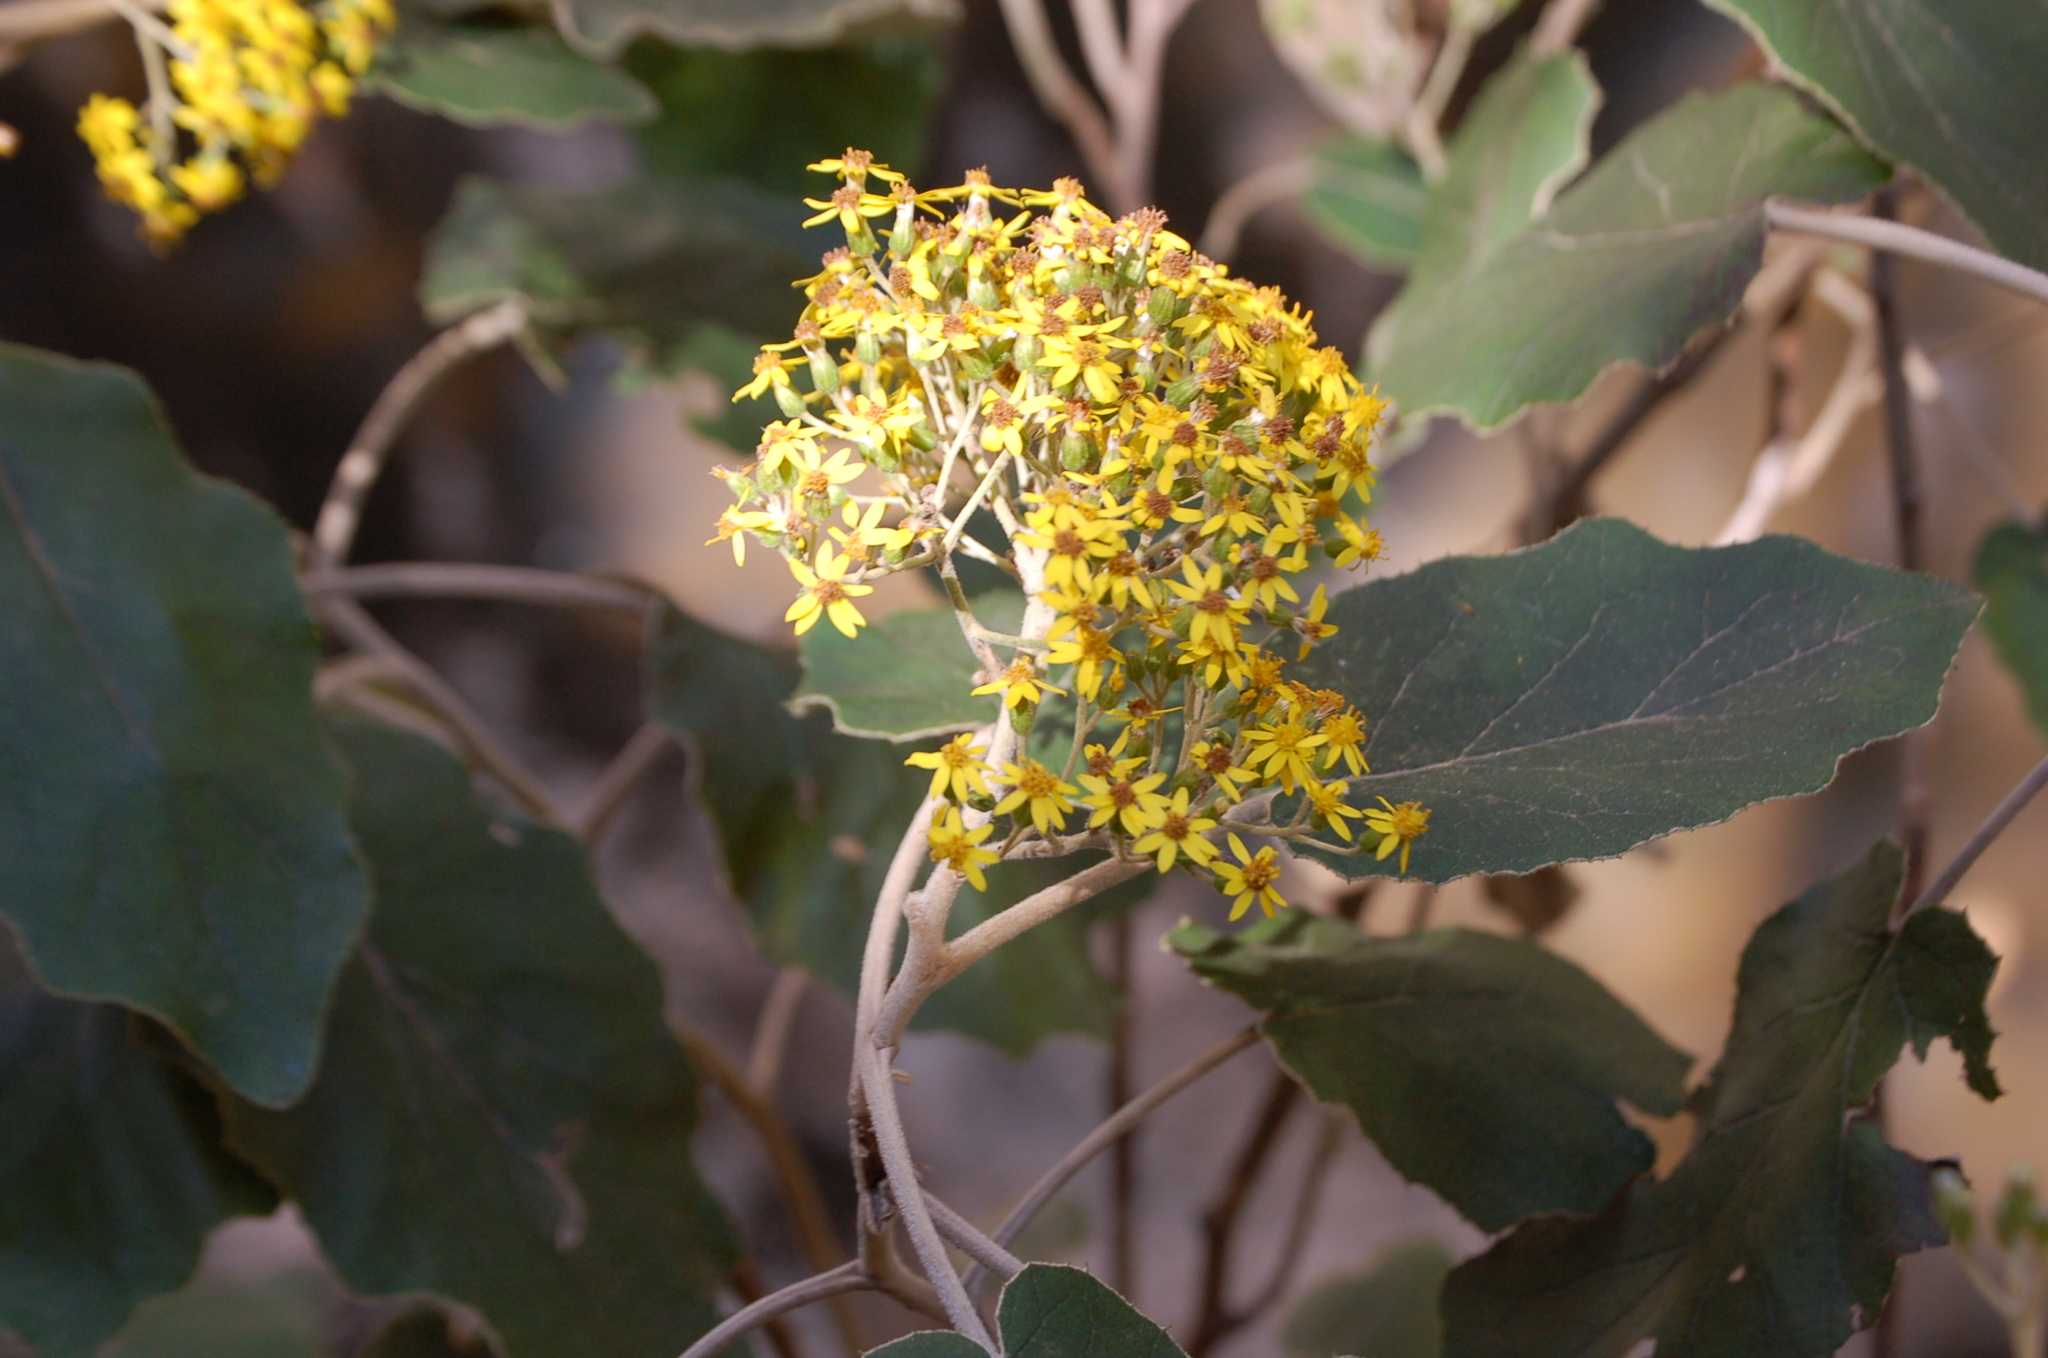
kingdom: Plantae
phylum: Tracheophyta
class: Magnoliopsida
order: Asterales
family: Asteraceae
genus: Roldana
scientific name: Roldana barba-johannis
